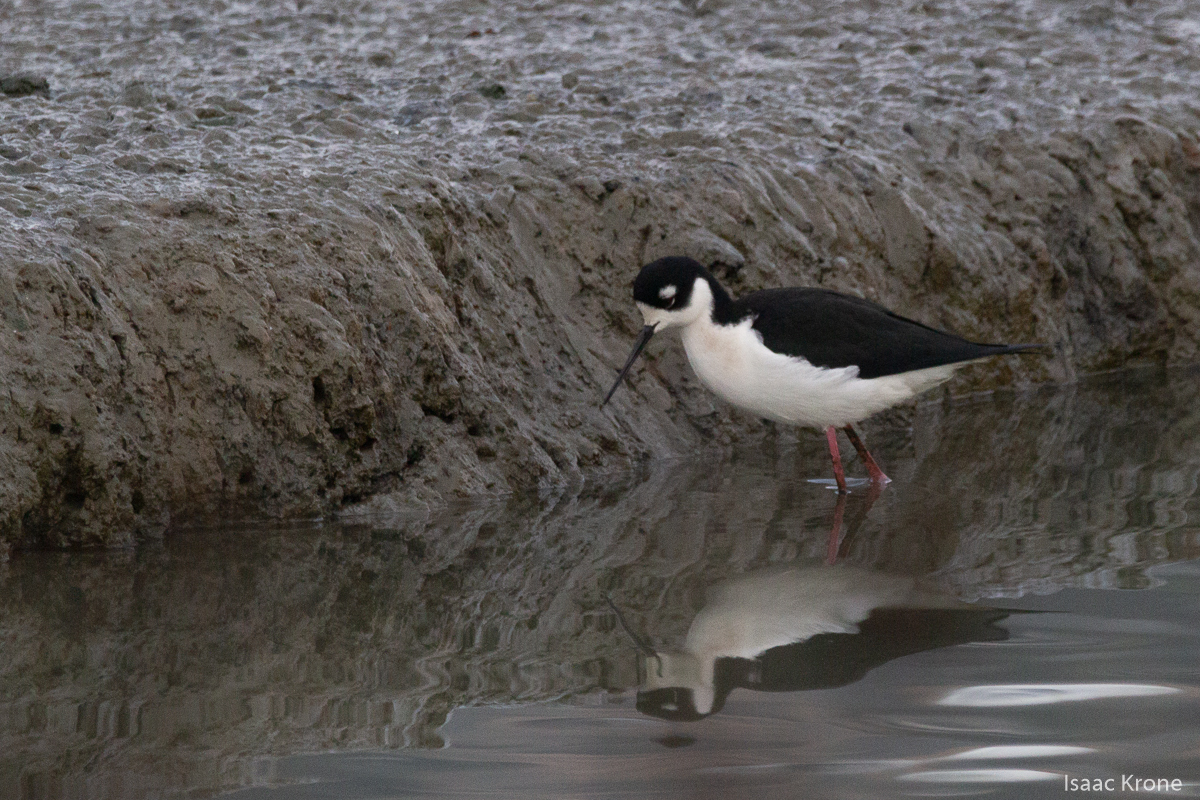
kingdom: Animalia
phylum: Chordata
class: Aves
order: Charadriiformes
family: Recurvirostridae
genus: Himantopus
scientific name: Himantopus mexicanus
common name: Black-necked stilt
